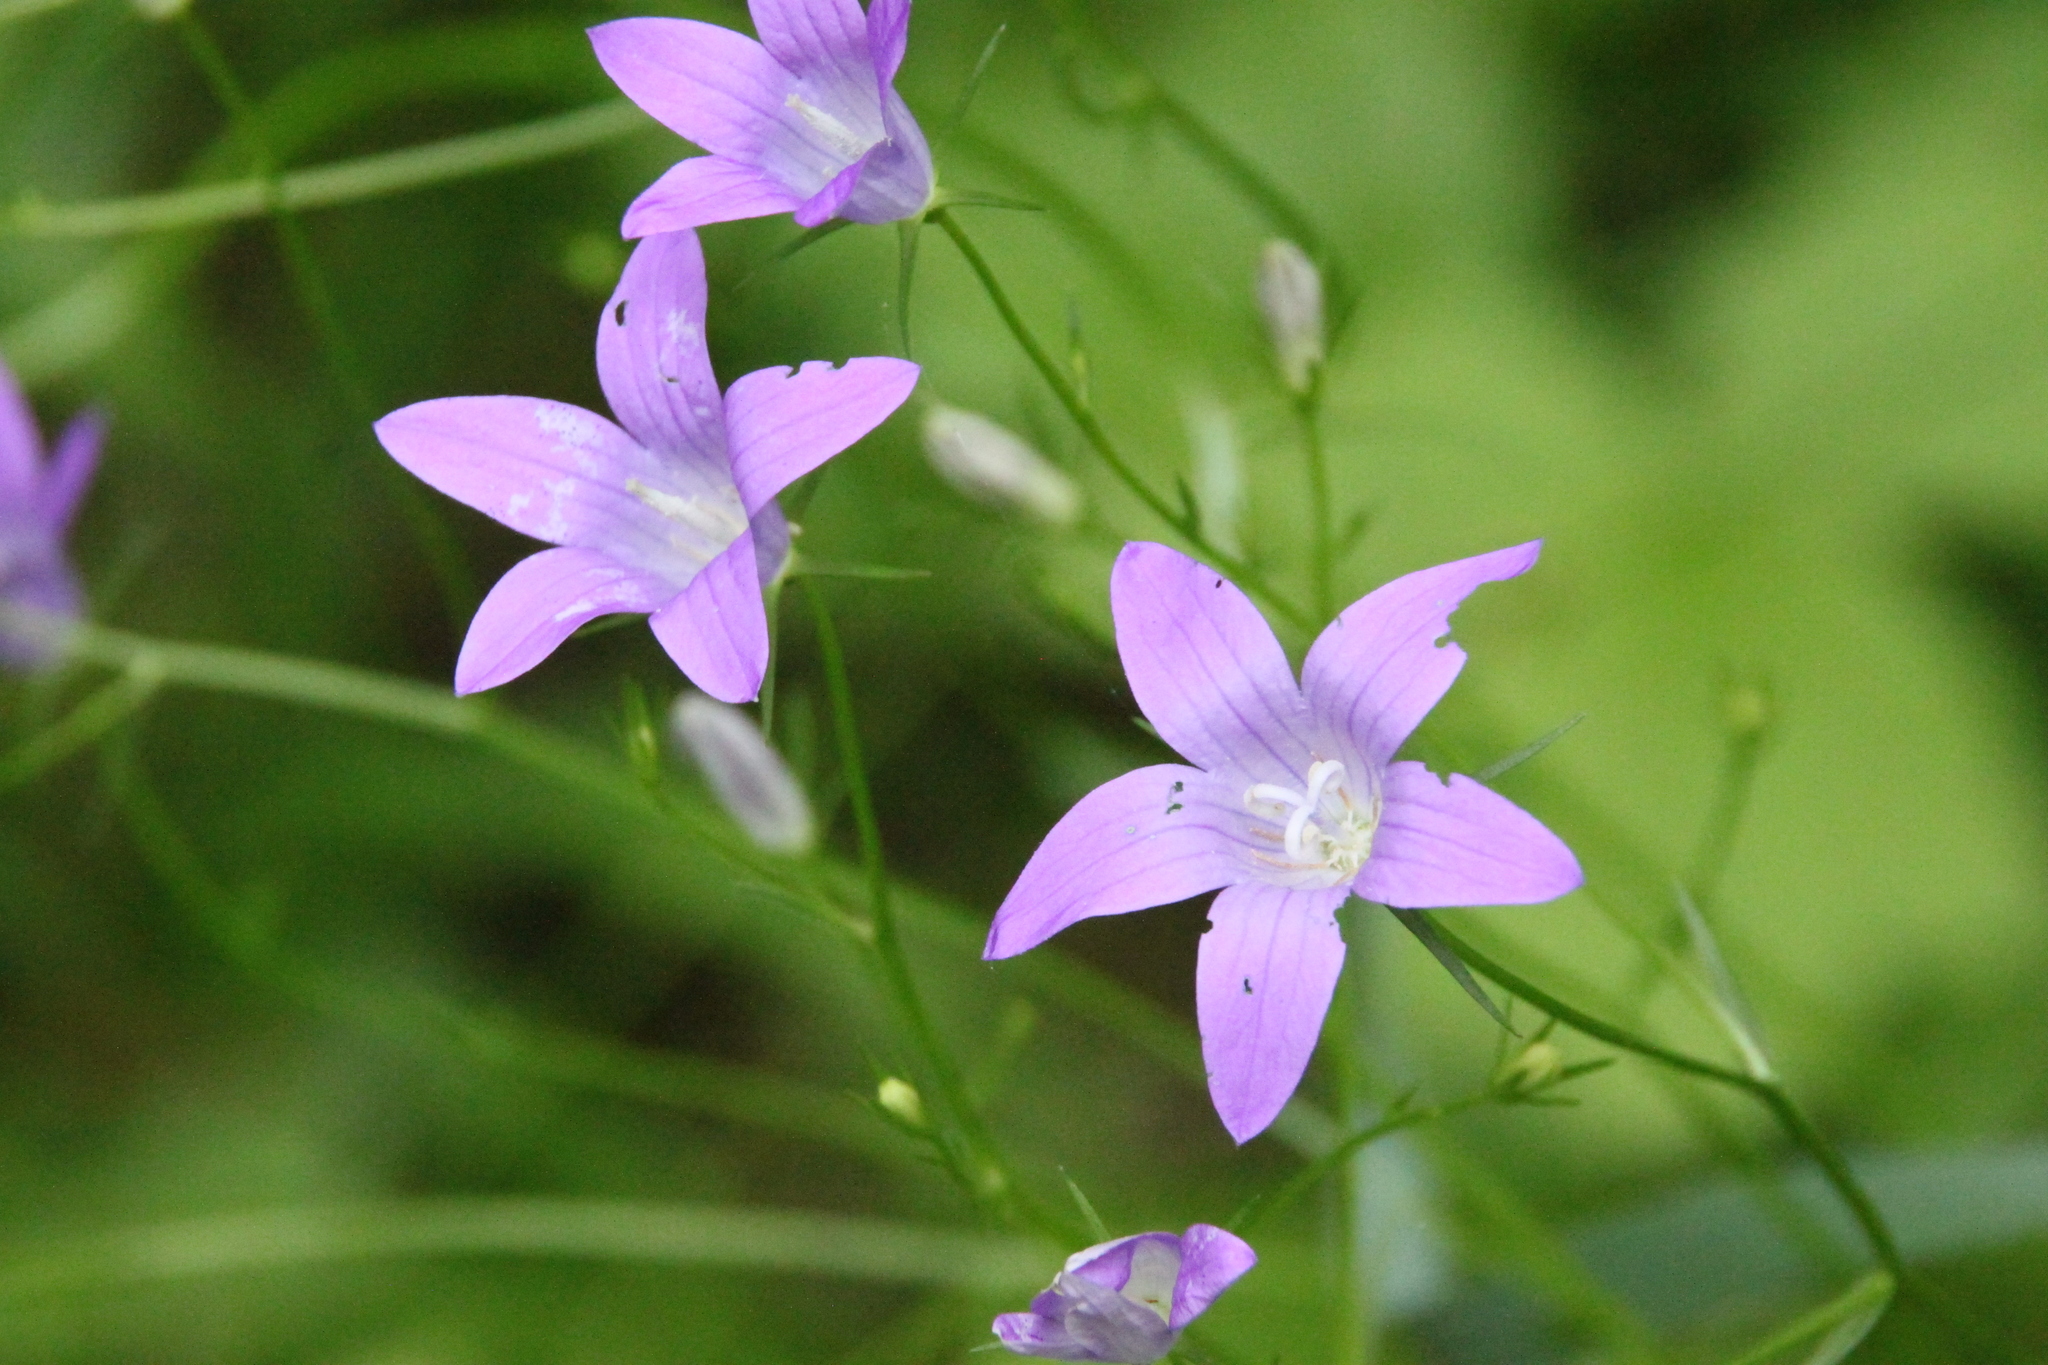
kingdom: Plantae
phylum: Tracheophyta
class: Magnoliopsida
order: Asterales
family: Campanulaceae
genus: Campanula
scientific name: Campanula patula
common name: Spreading bellflower
